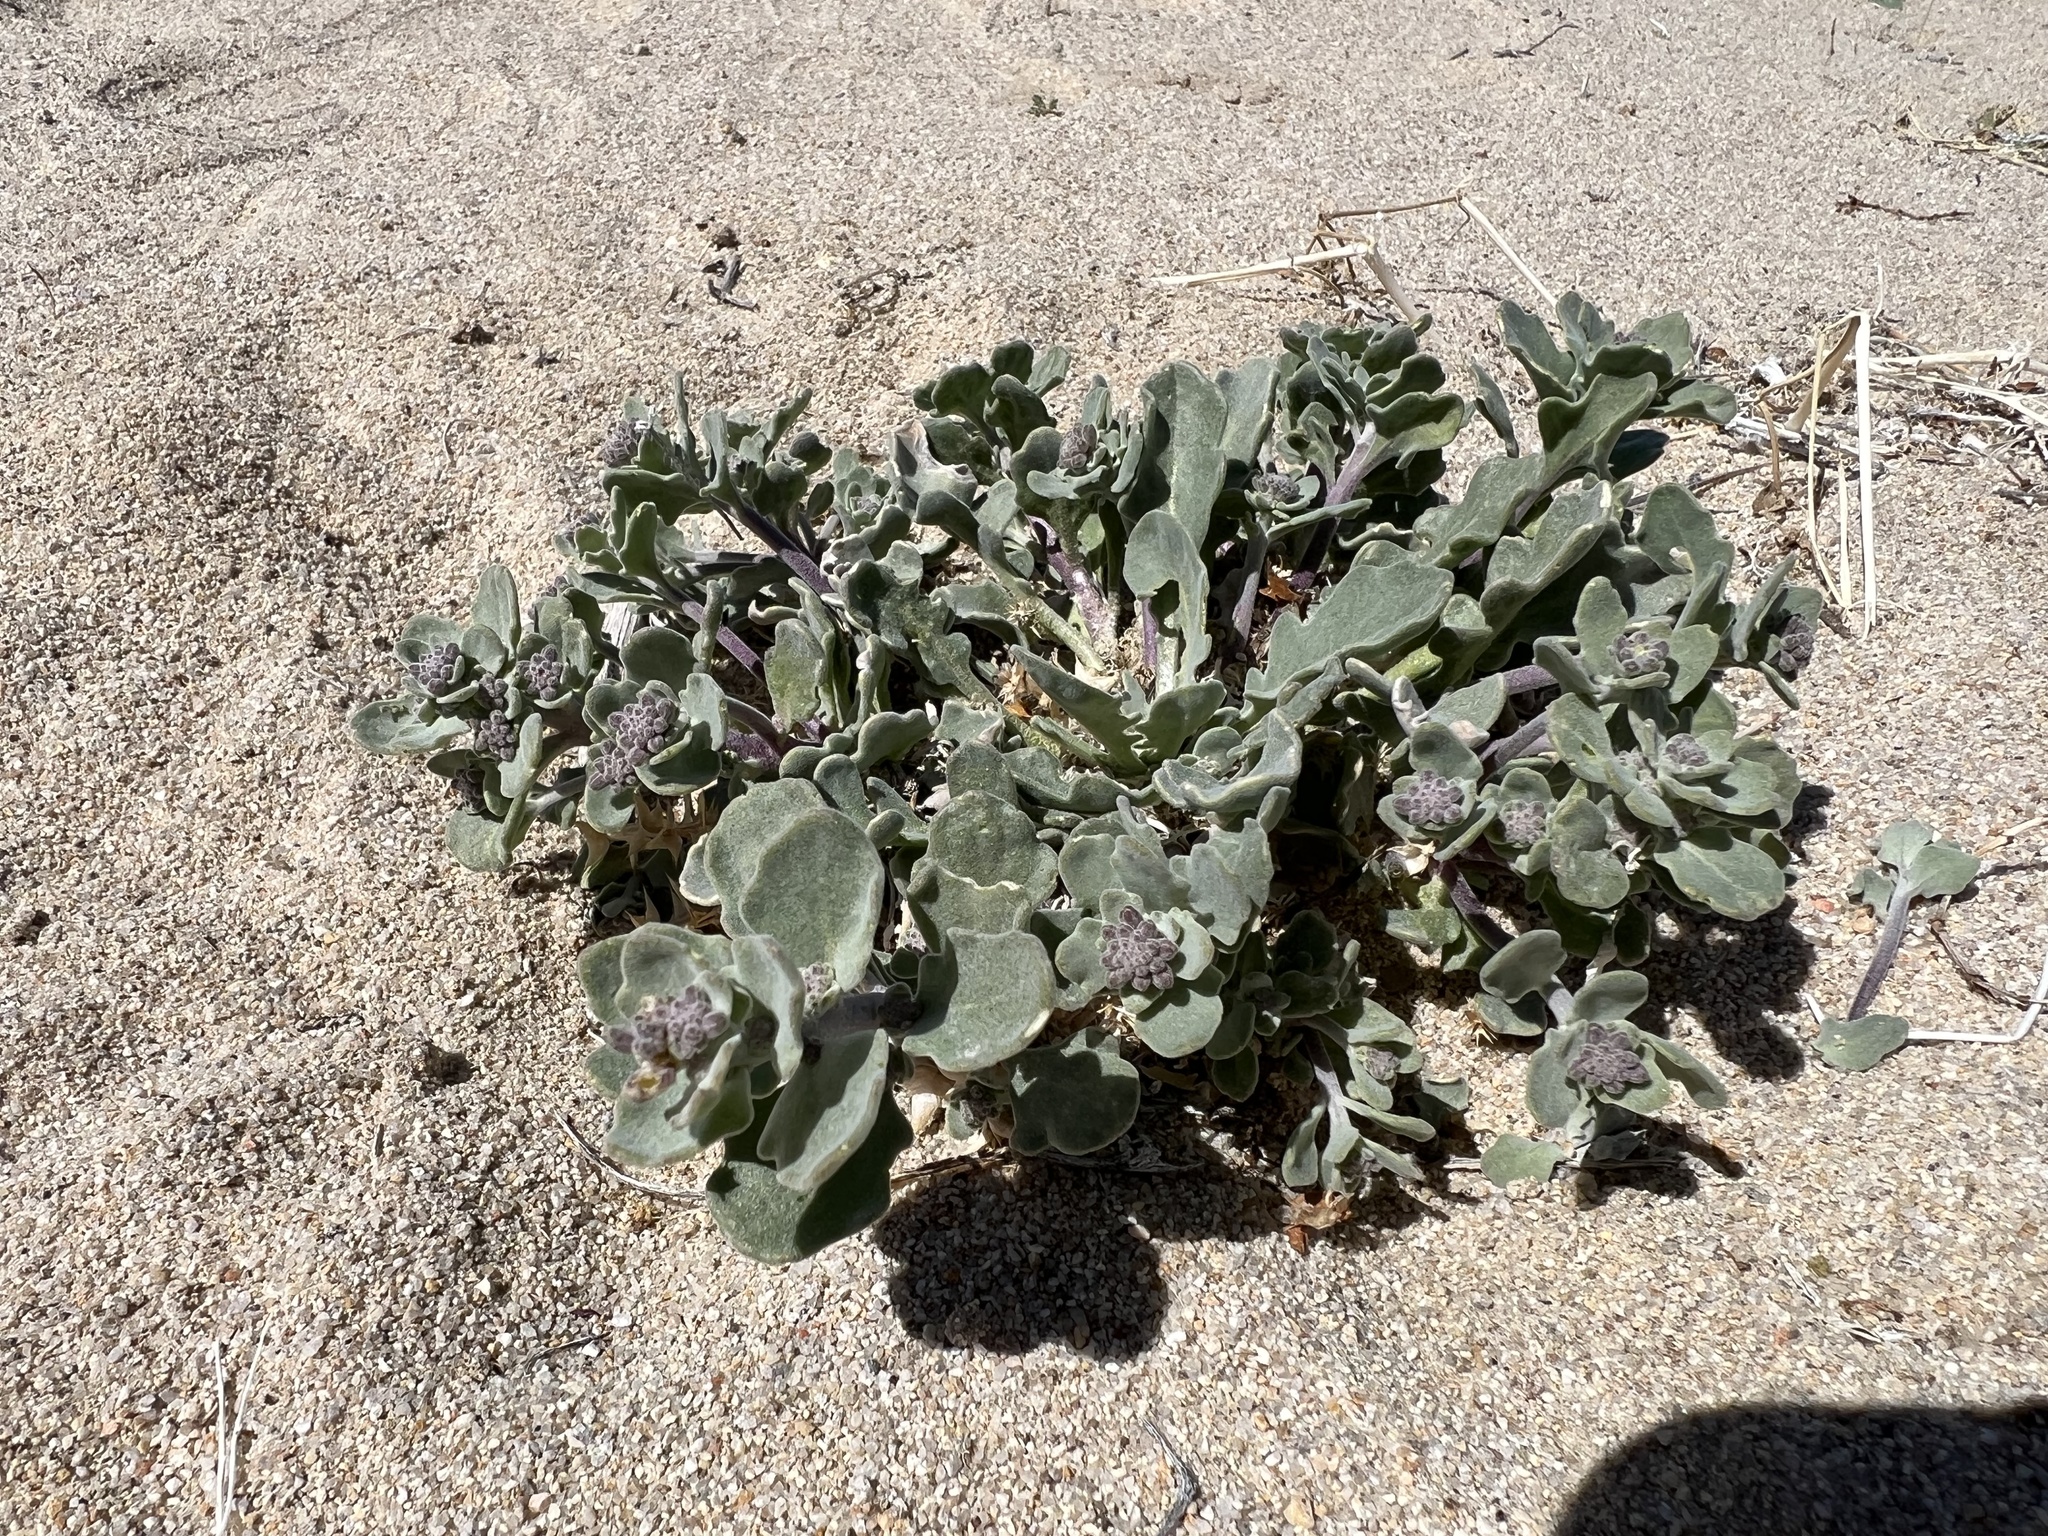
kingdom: Plantae
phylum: Tracheophyta
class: Magnoliopsida
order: Brassicales
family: Brassicaceae
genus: Dithyrea
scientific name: Dithyrea californica
